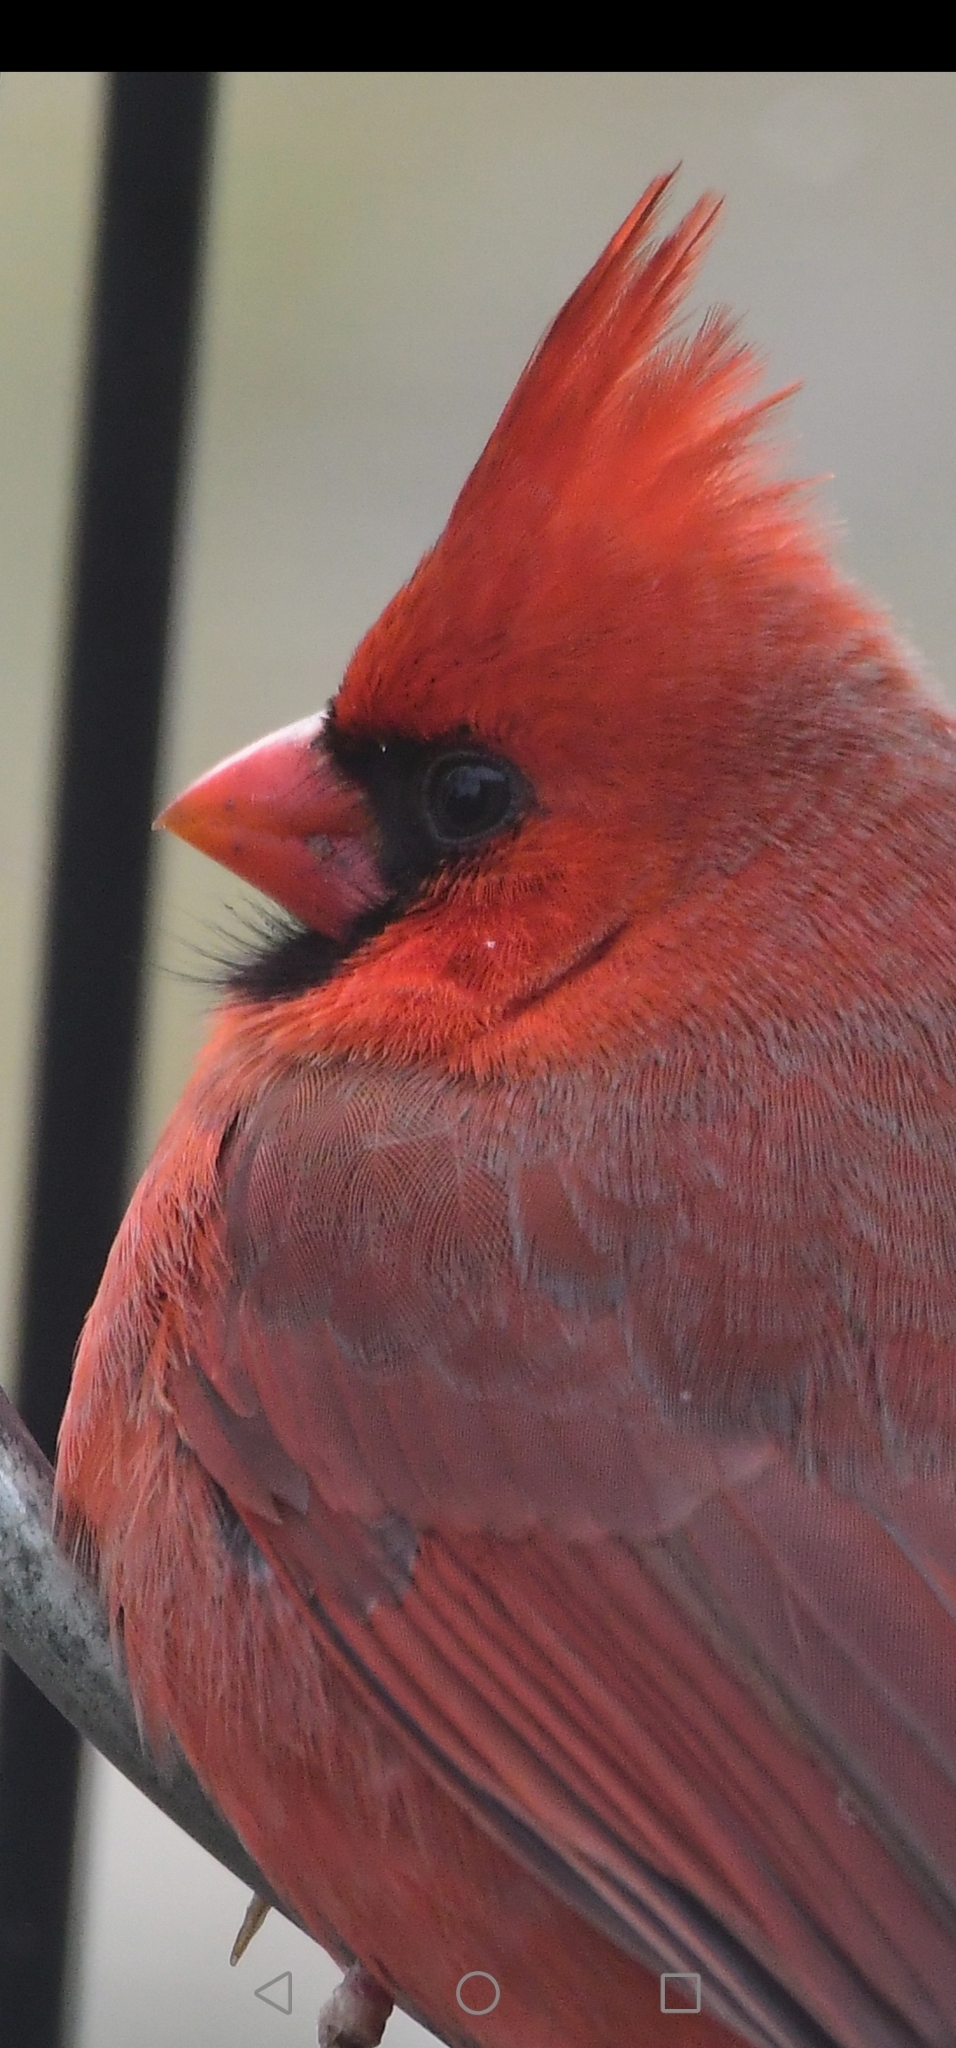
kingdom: Animalia
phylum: Chordata
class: Aves
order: Passeriformes
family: Cardinalidae
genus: Cardinalis
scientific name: Cardinalis cardinalis
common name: Northern cardinal
